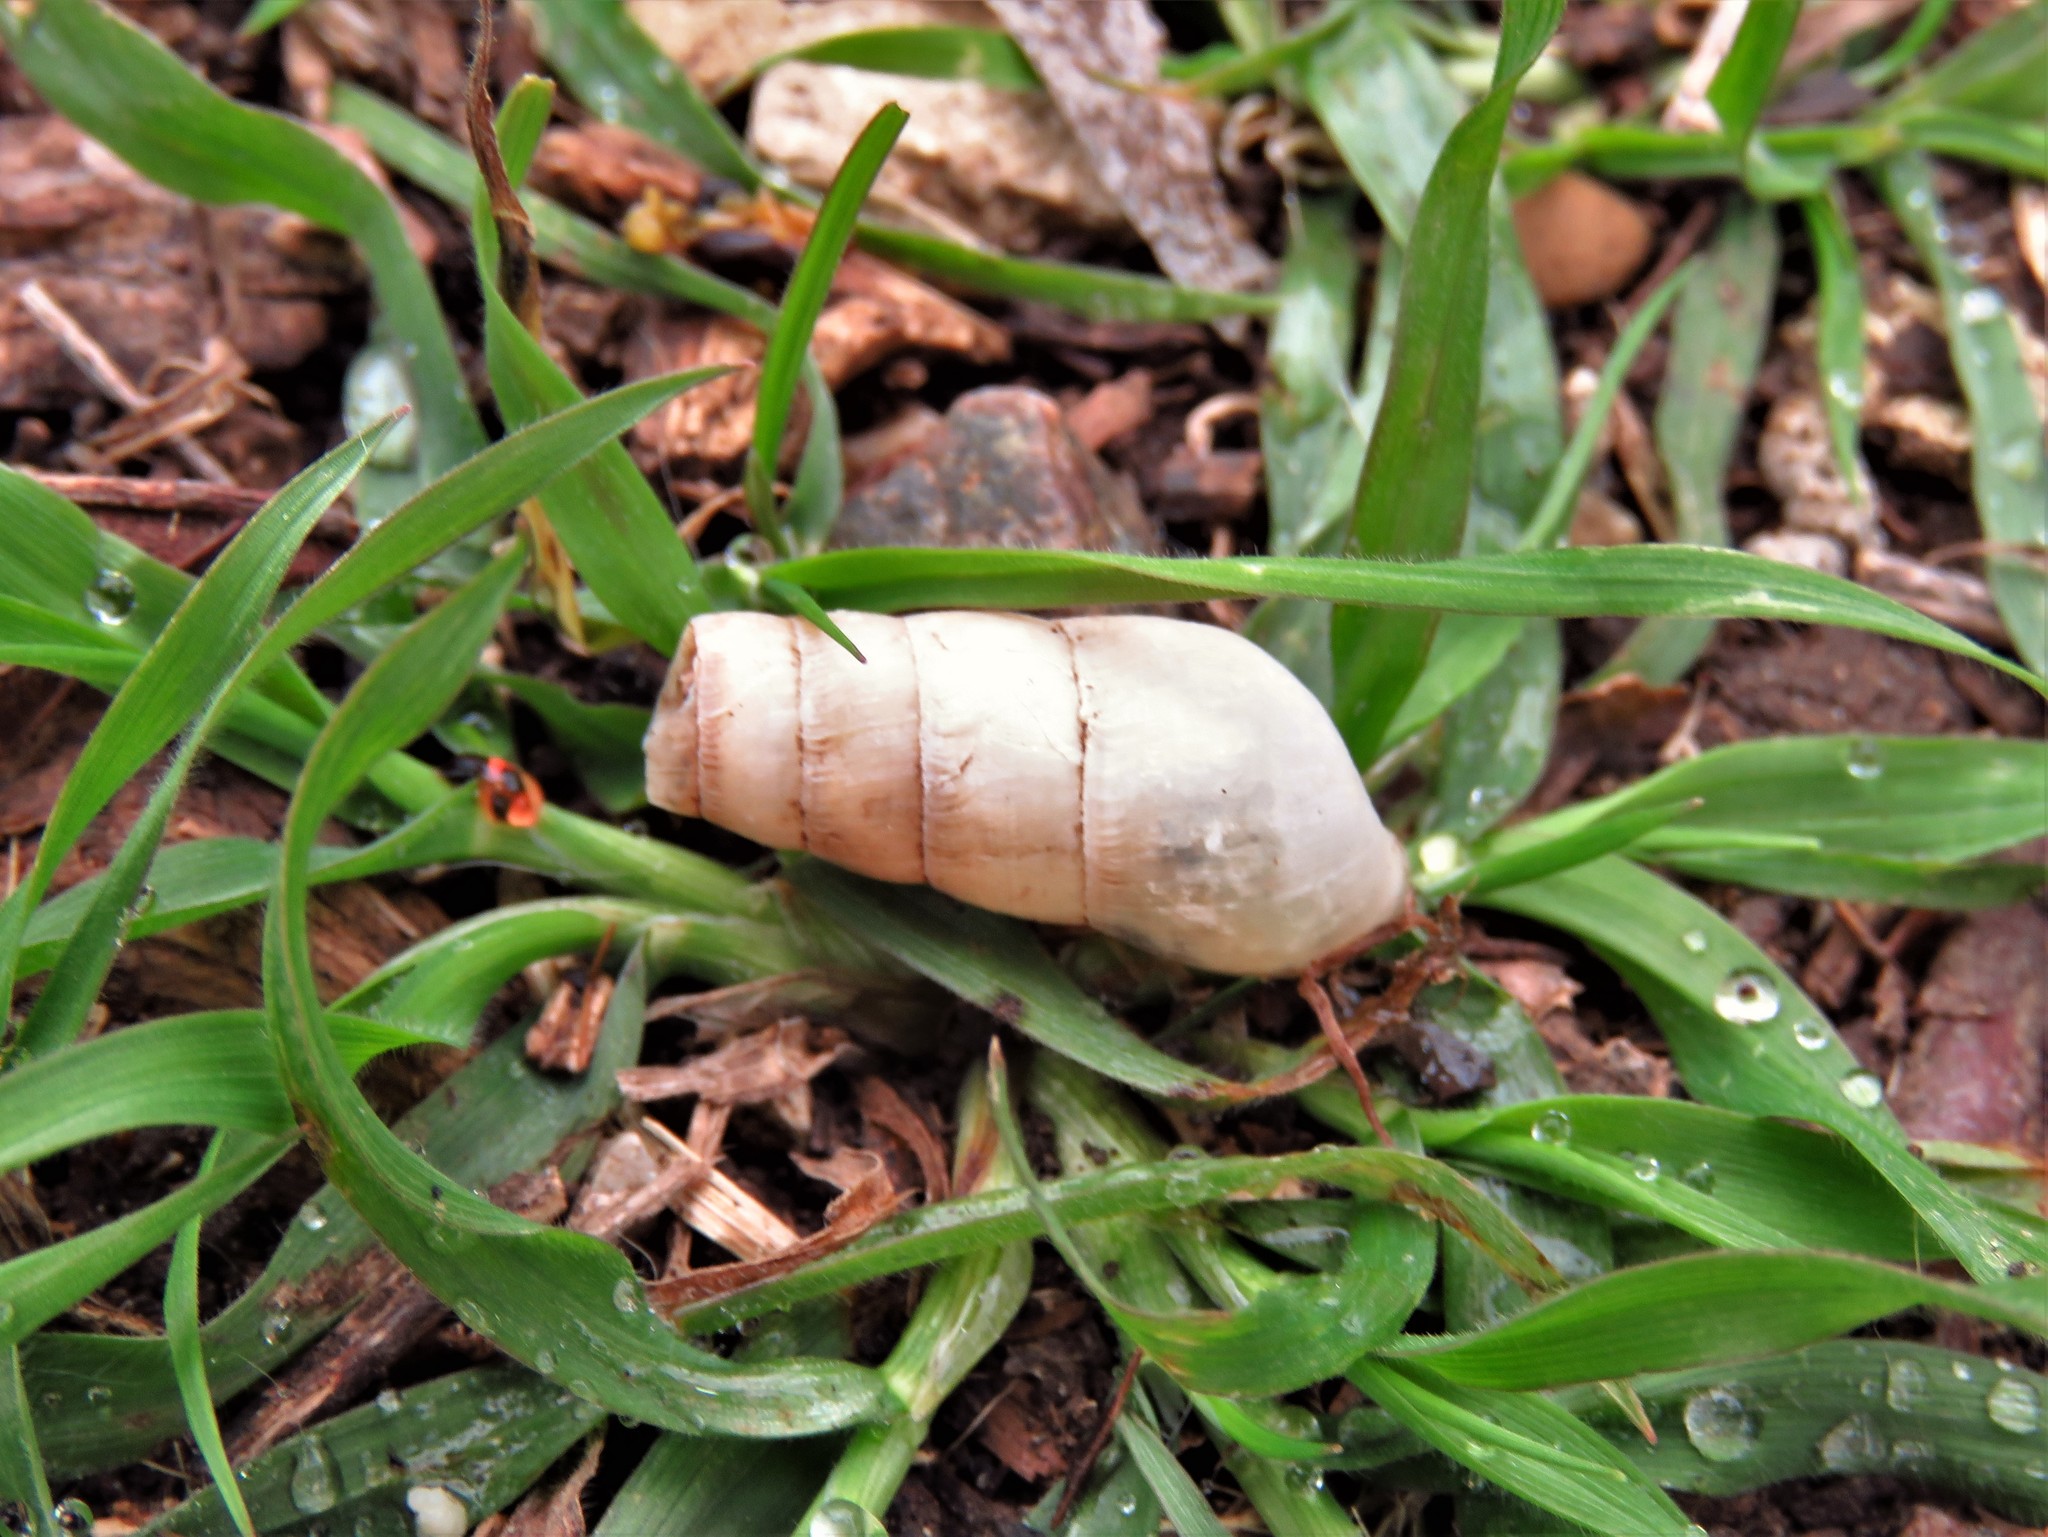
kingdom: Animalia
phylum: Mollusca
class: Gastropoda
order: Stylommatophora
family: Achatinidae
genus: Rumina
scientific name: Rumina decollata
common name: Decollate snail
